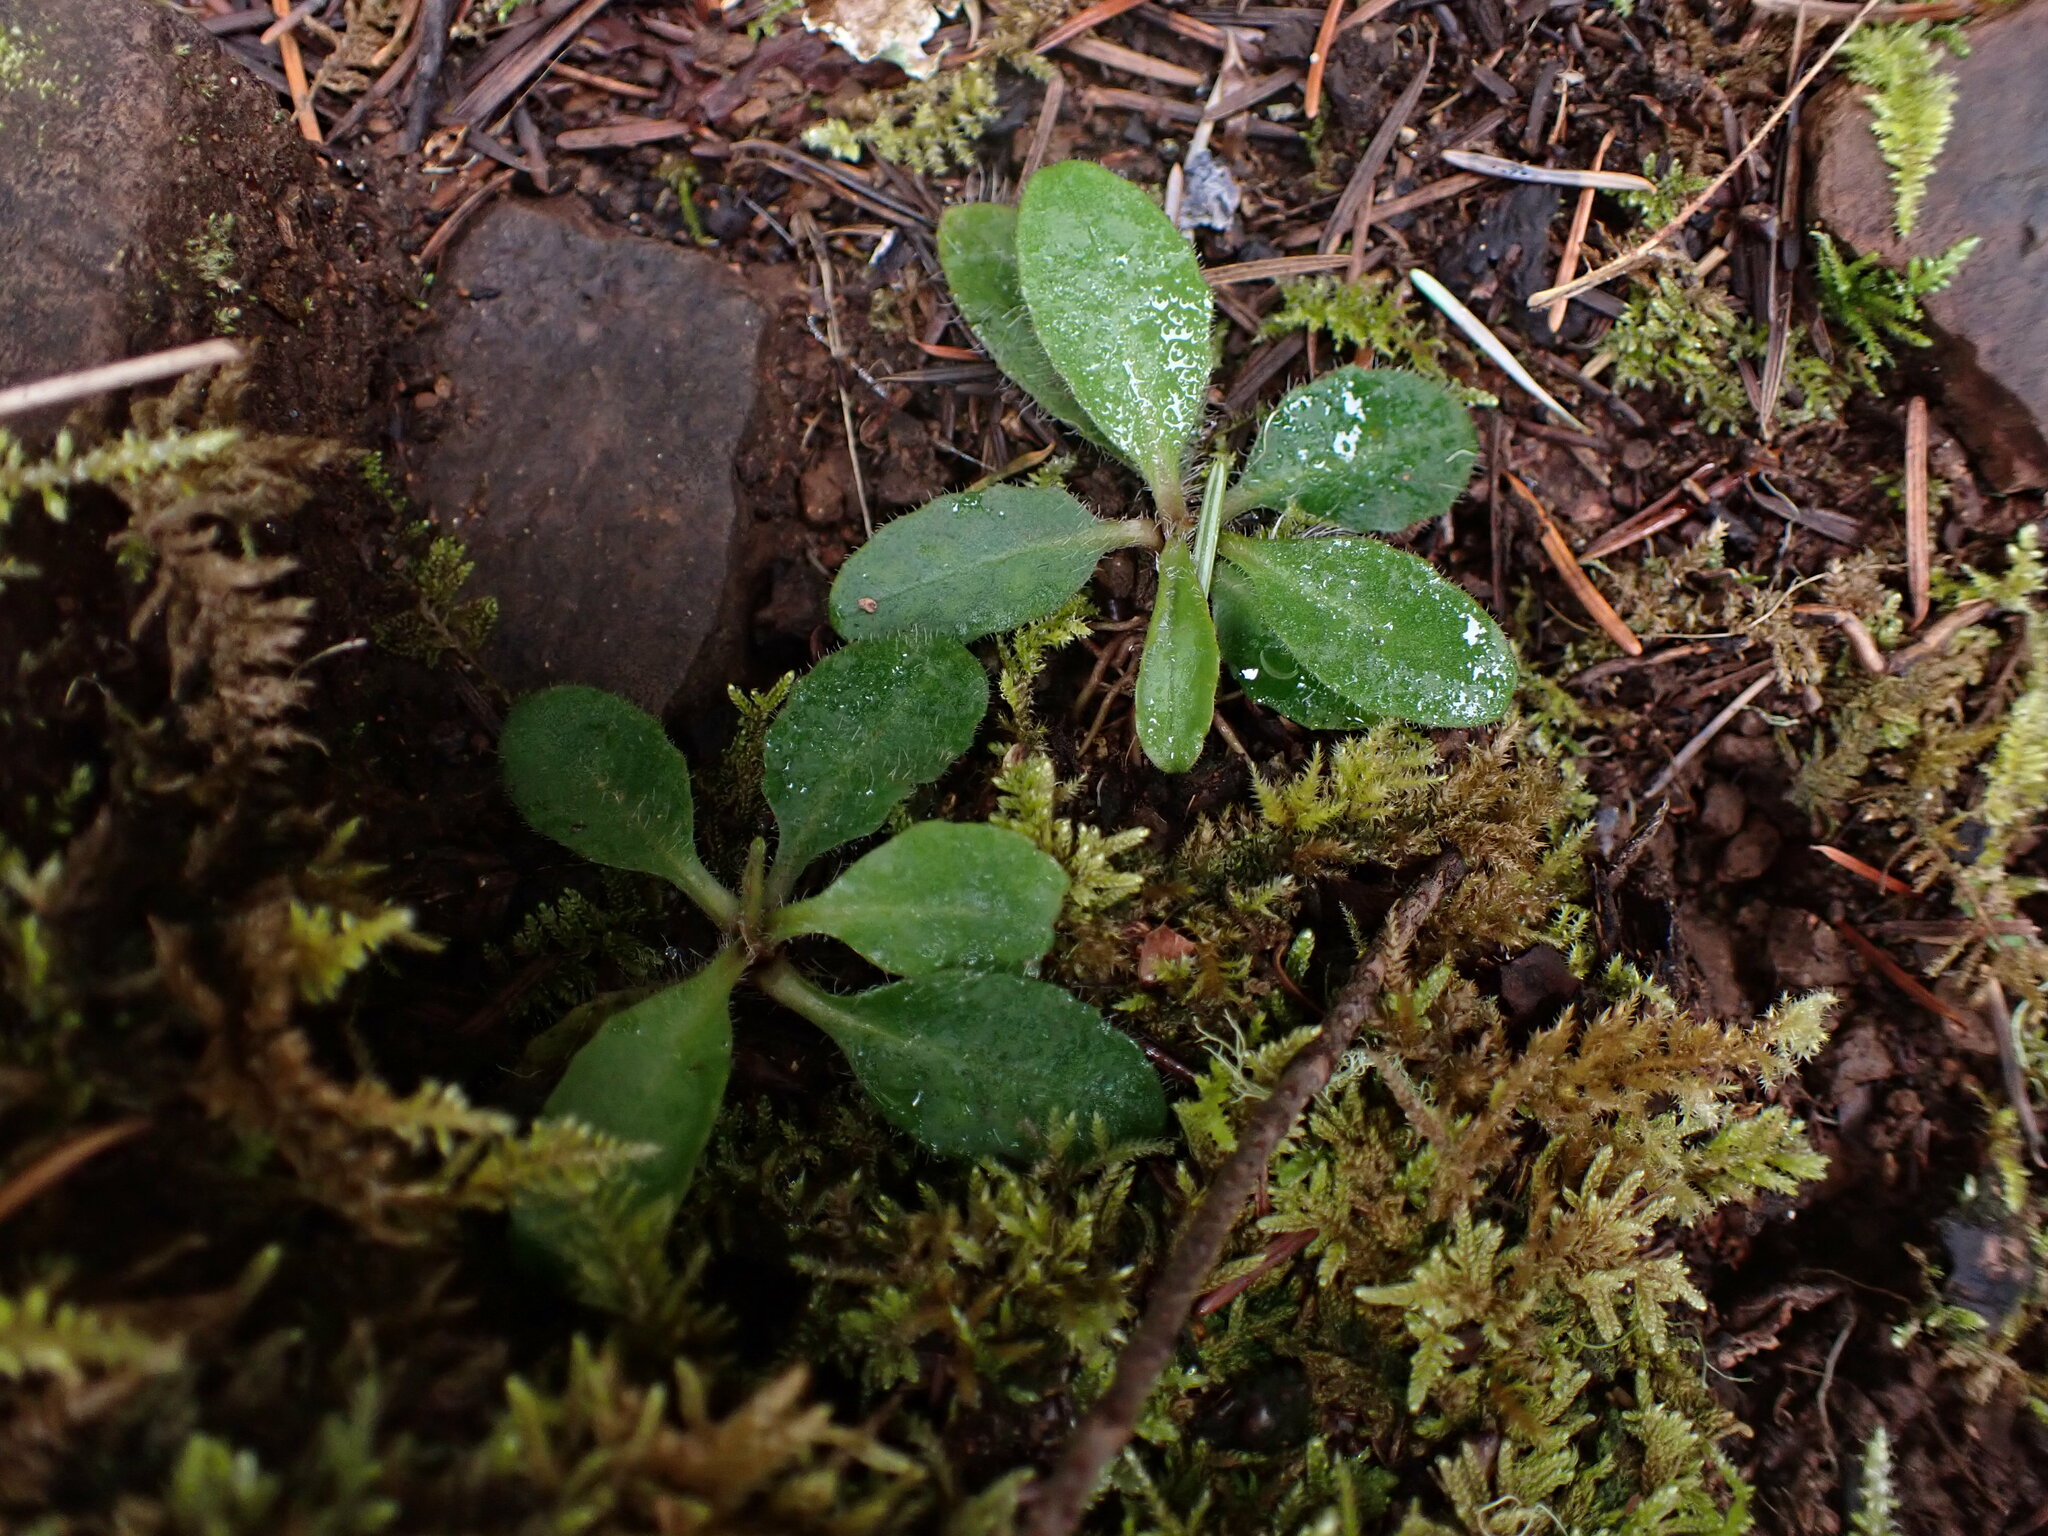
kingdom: Plantae
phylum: Tracheophyta
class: Magnoliopsida
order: Asterales
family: Asteraceae
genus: Hieracium
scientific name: Hieracium albiflorum
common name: White hawkweed
